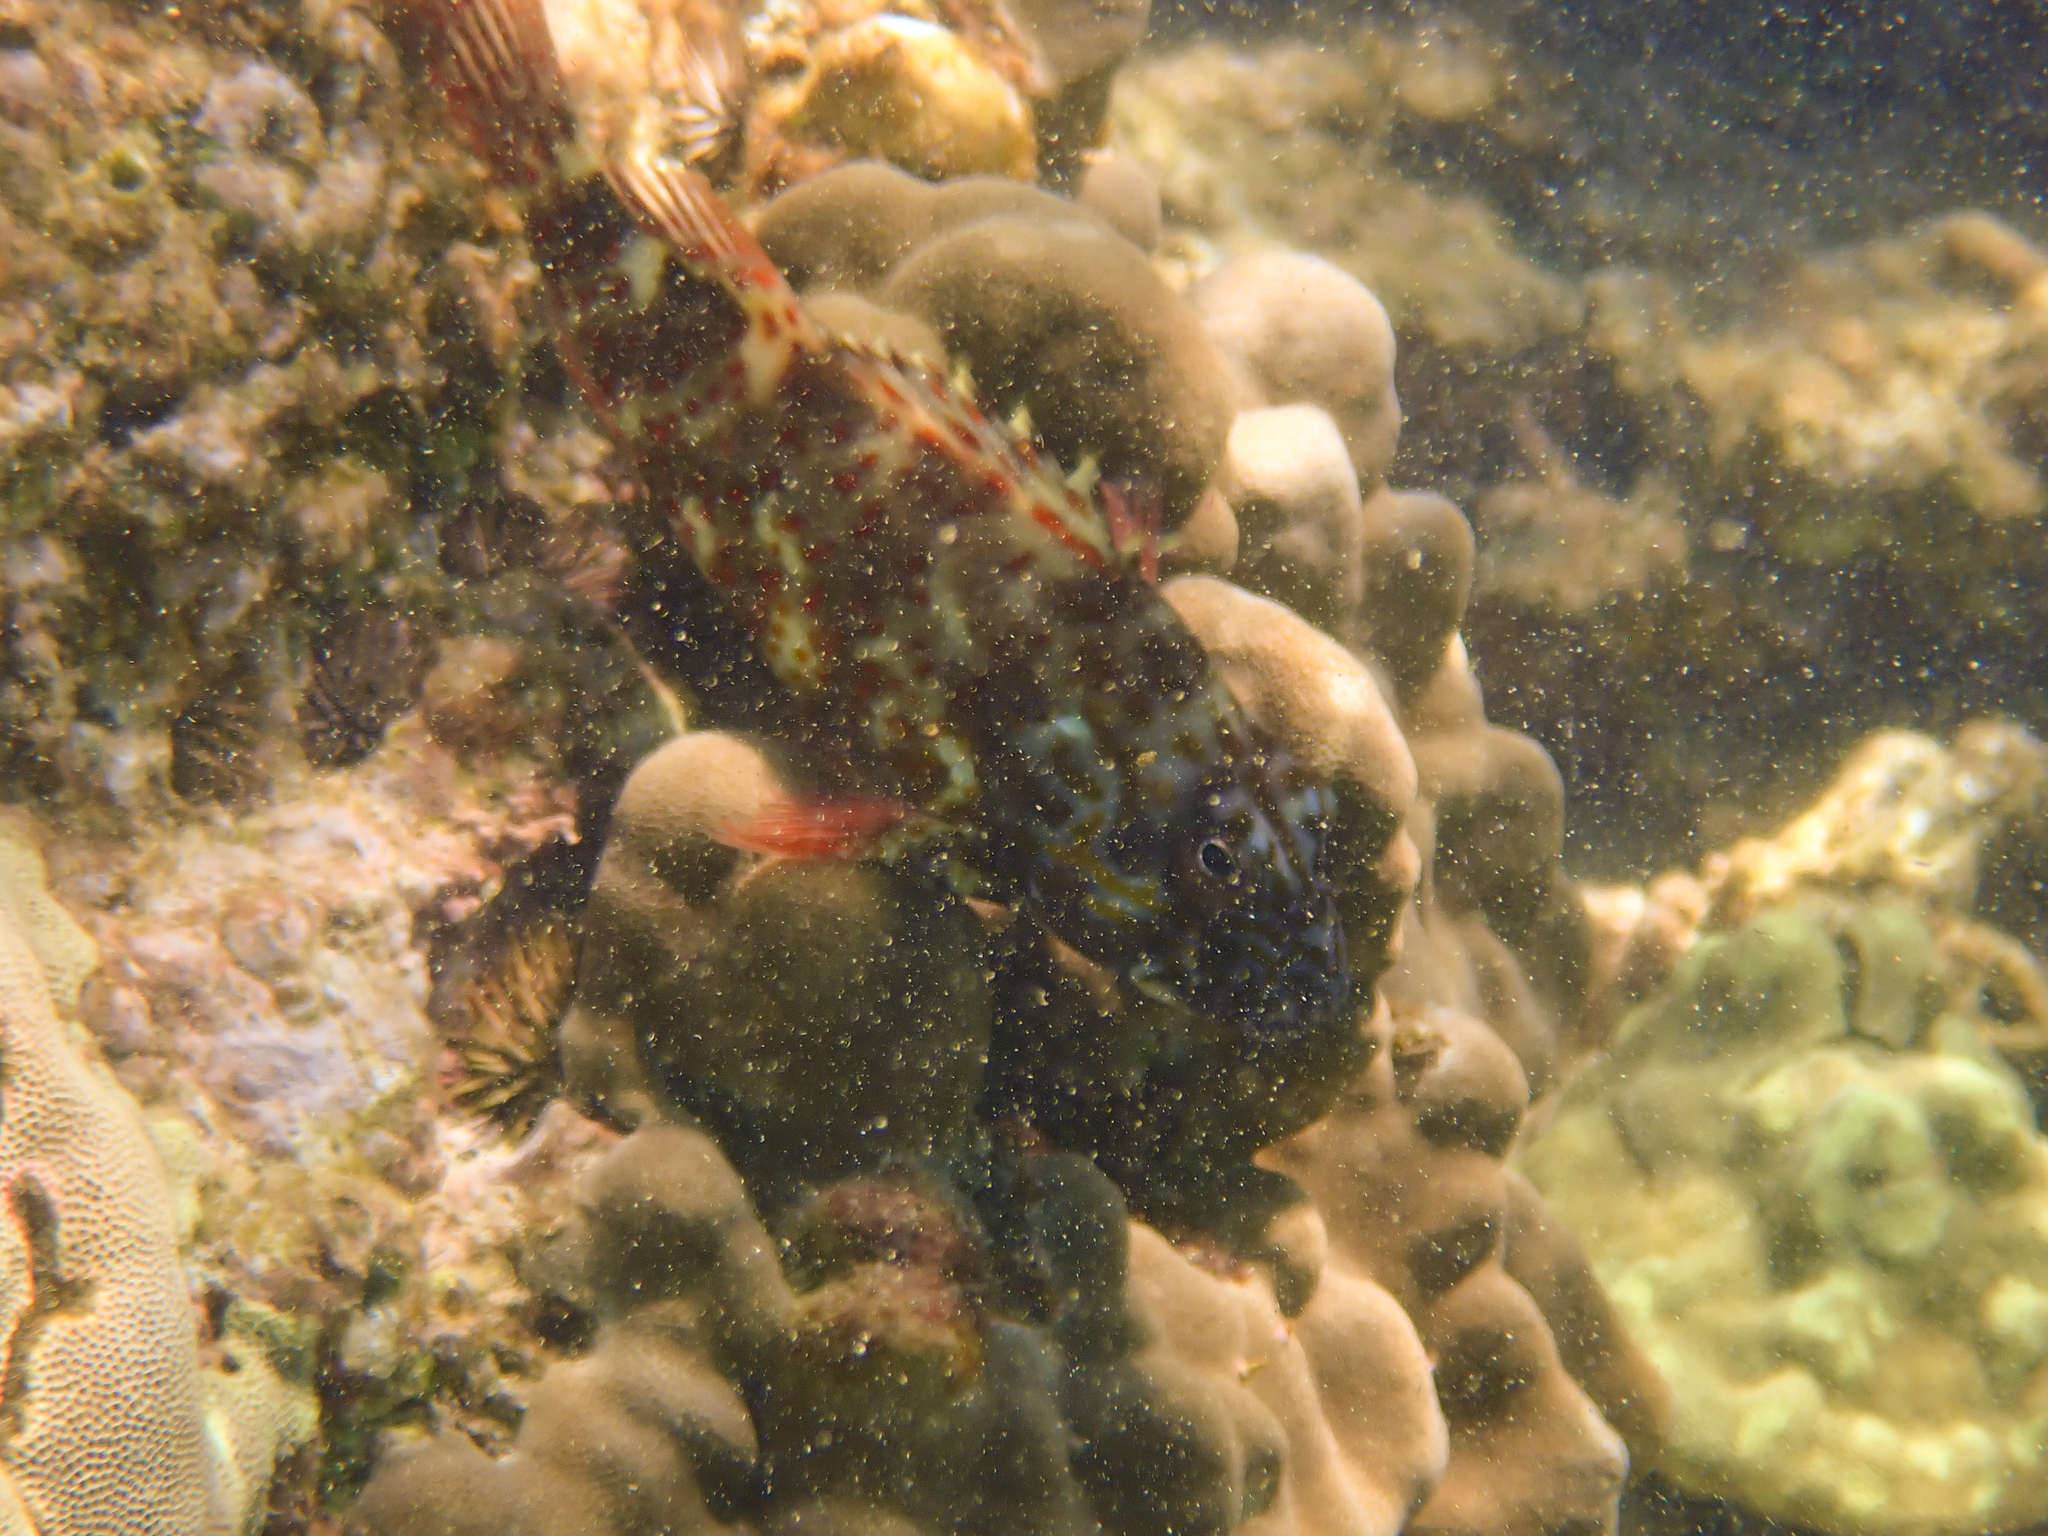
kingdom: Animalia
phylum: Chordata
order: Perciformes
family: Cirrhitidae
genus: Cirrhitus
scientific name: Cirrhitus pinnulatus
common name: Stocky hawkfish
